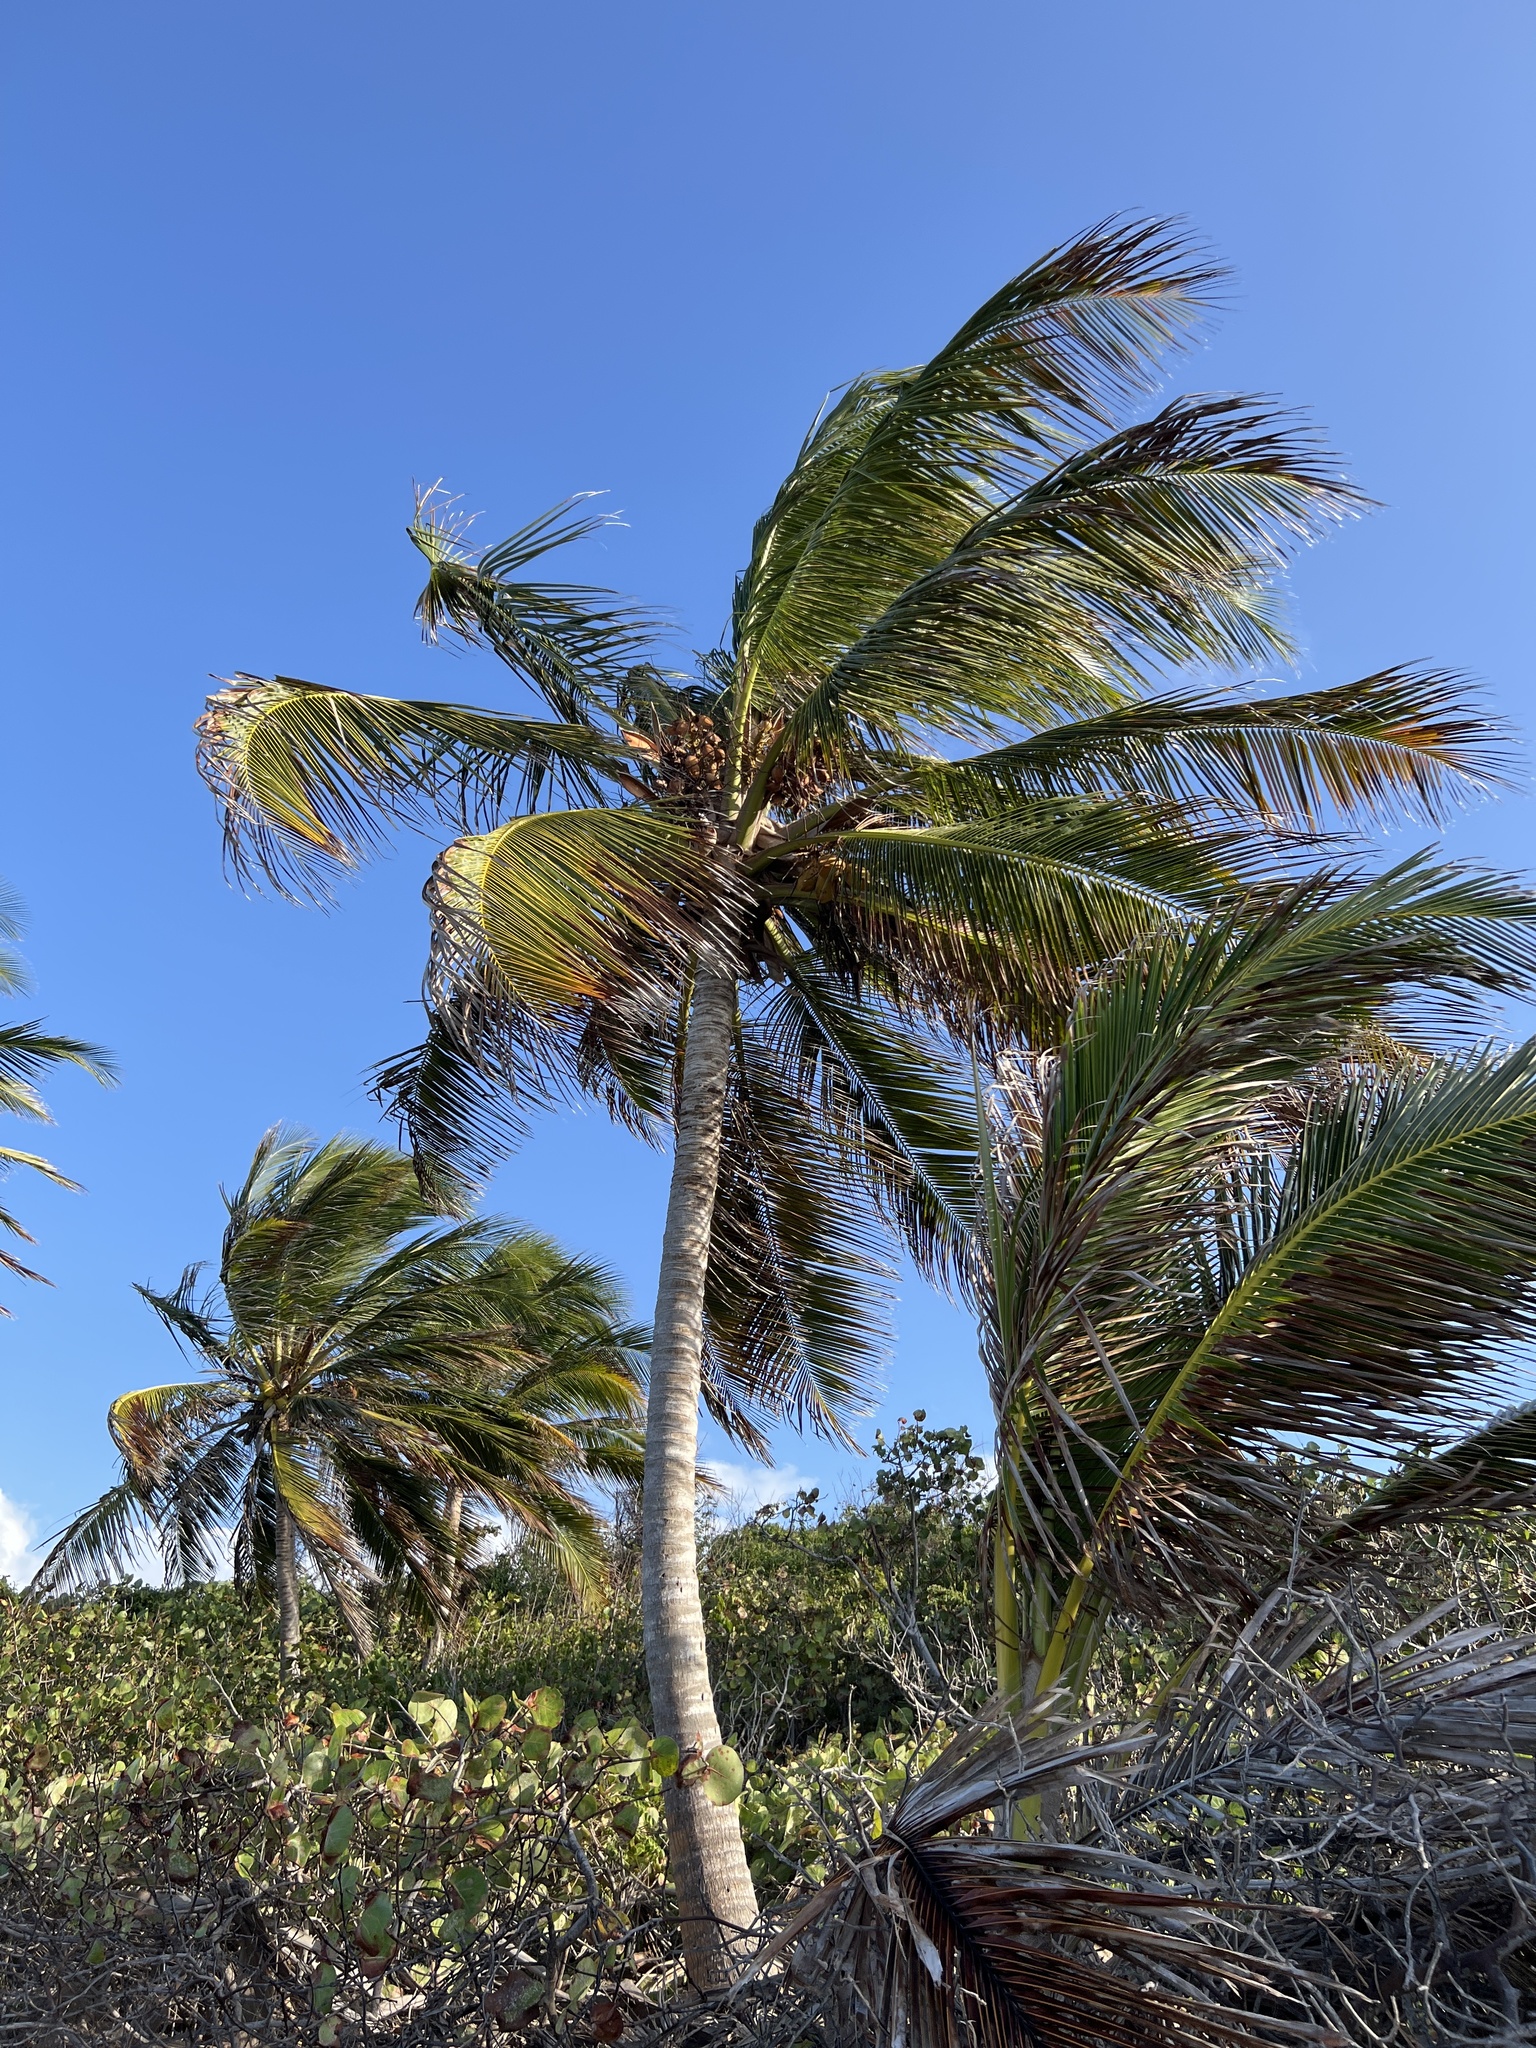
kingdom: Plantae
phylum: Tracheophyta
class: Liliopsida
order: Arecales
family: Arecaceae
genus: Cocos
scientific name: Cocos nucifera
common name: Coconut palm
